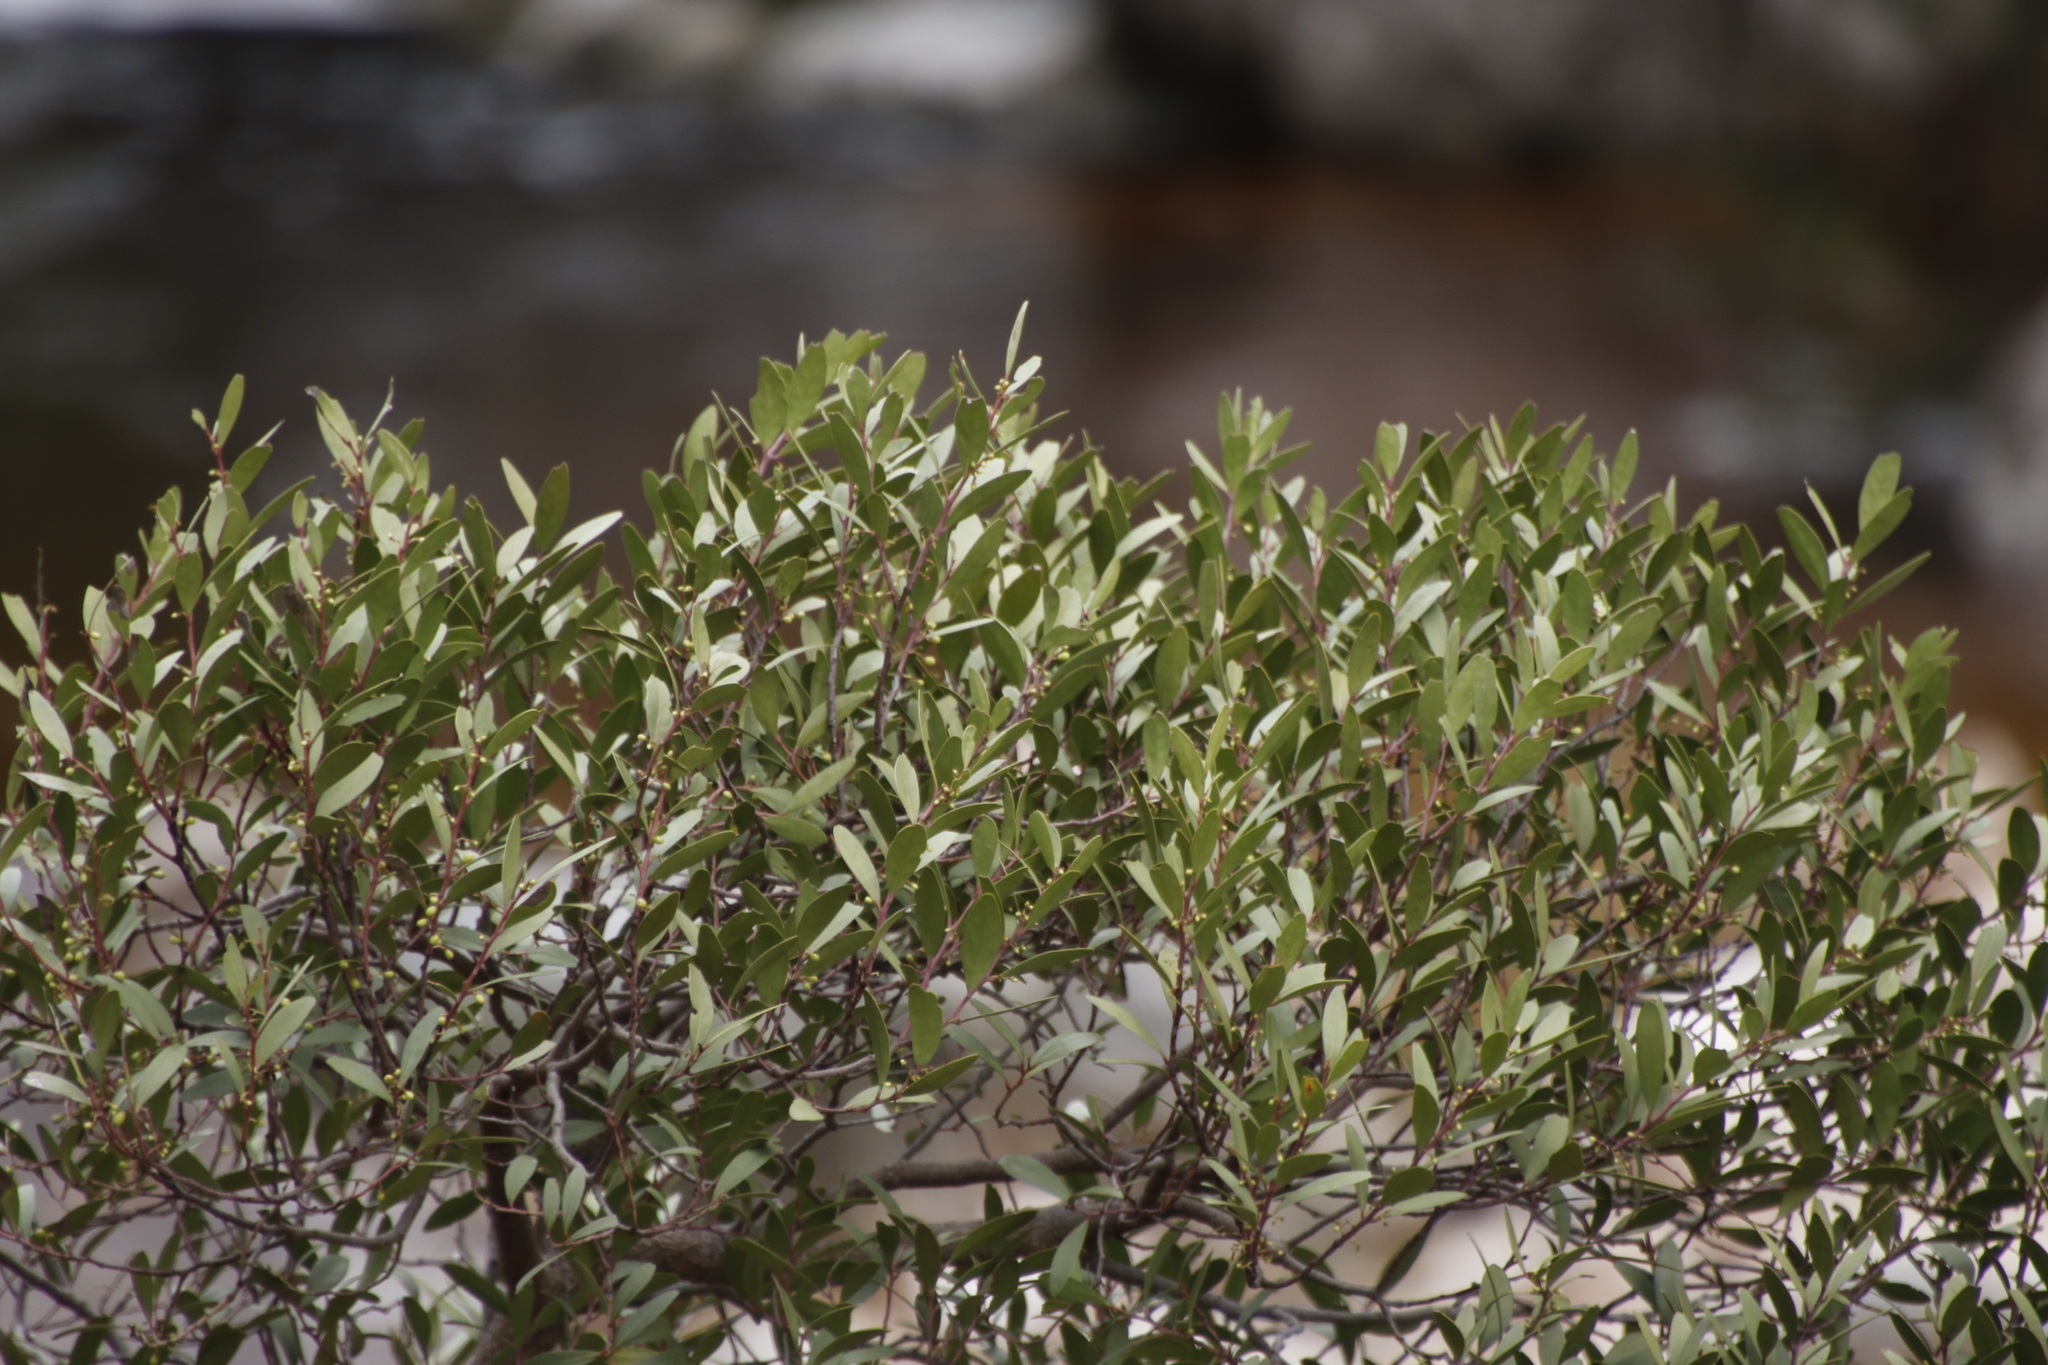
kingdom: Plantae
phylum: Tracheophyta
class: Magnoliopsida
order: Celastrales
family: Celastraceae
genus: Gymnosporia
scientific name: Gymnosporia laurina
